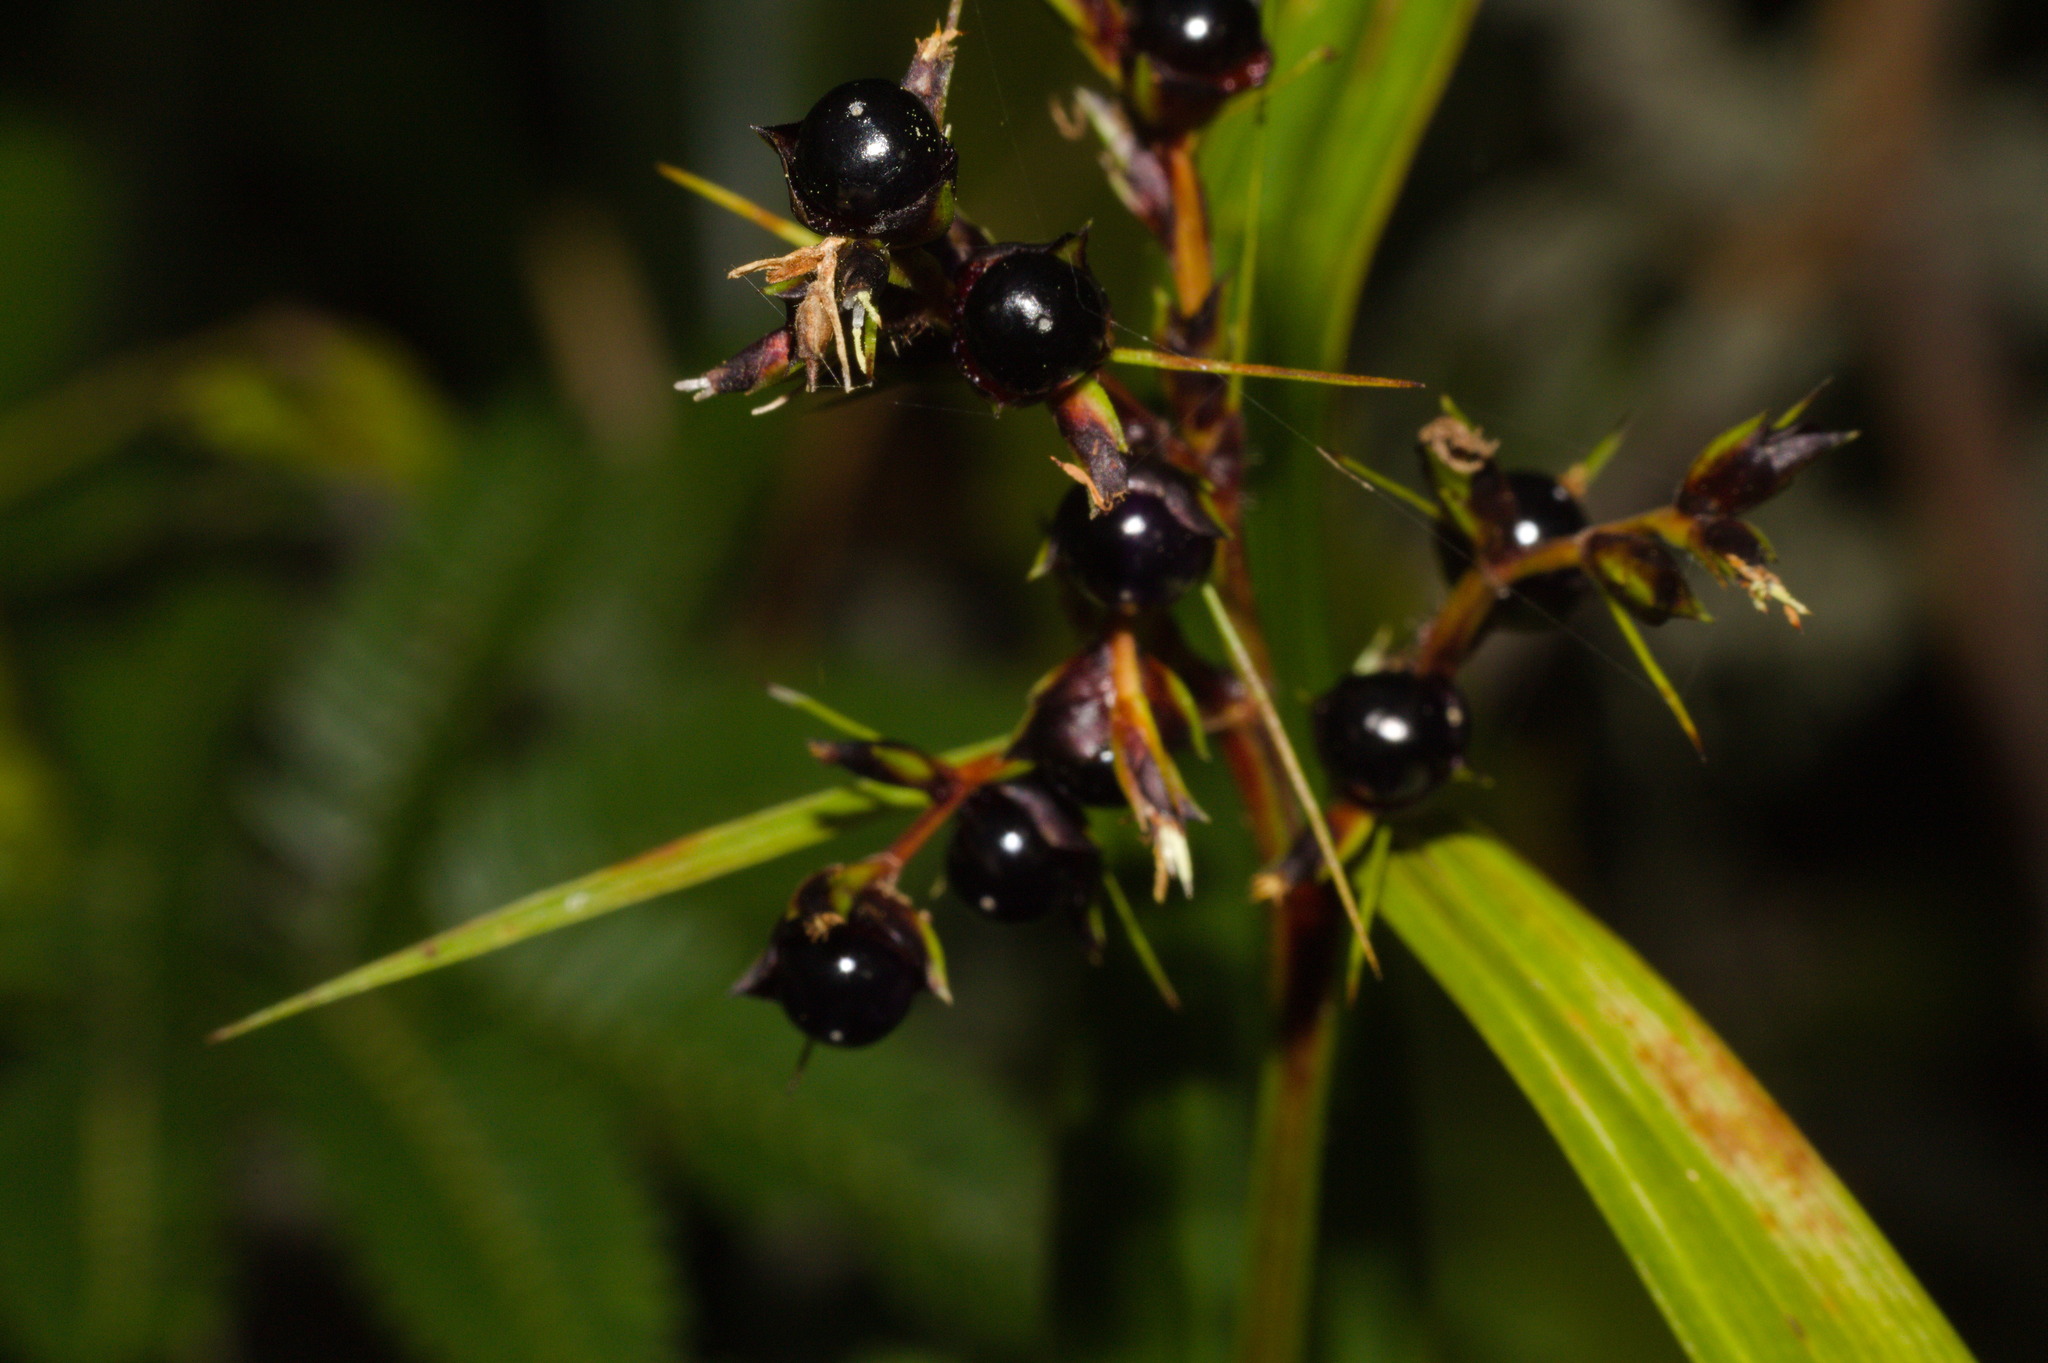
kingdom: Plantae
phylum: Tracheophyta
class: Liliopsida
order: Poales
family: Cyperaceae
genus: Scleria
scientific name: Scleria latifolia
